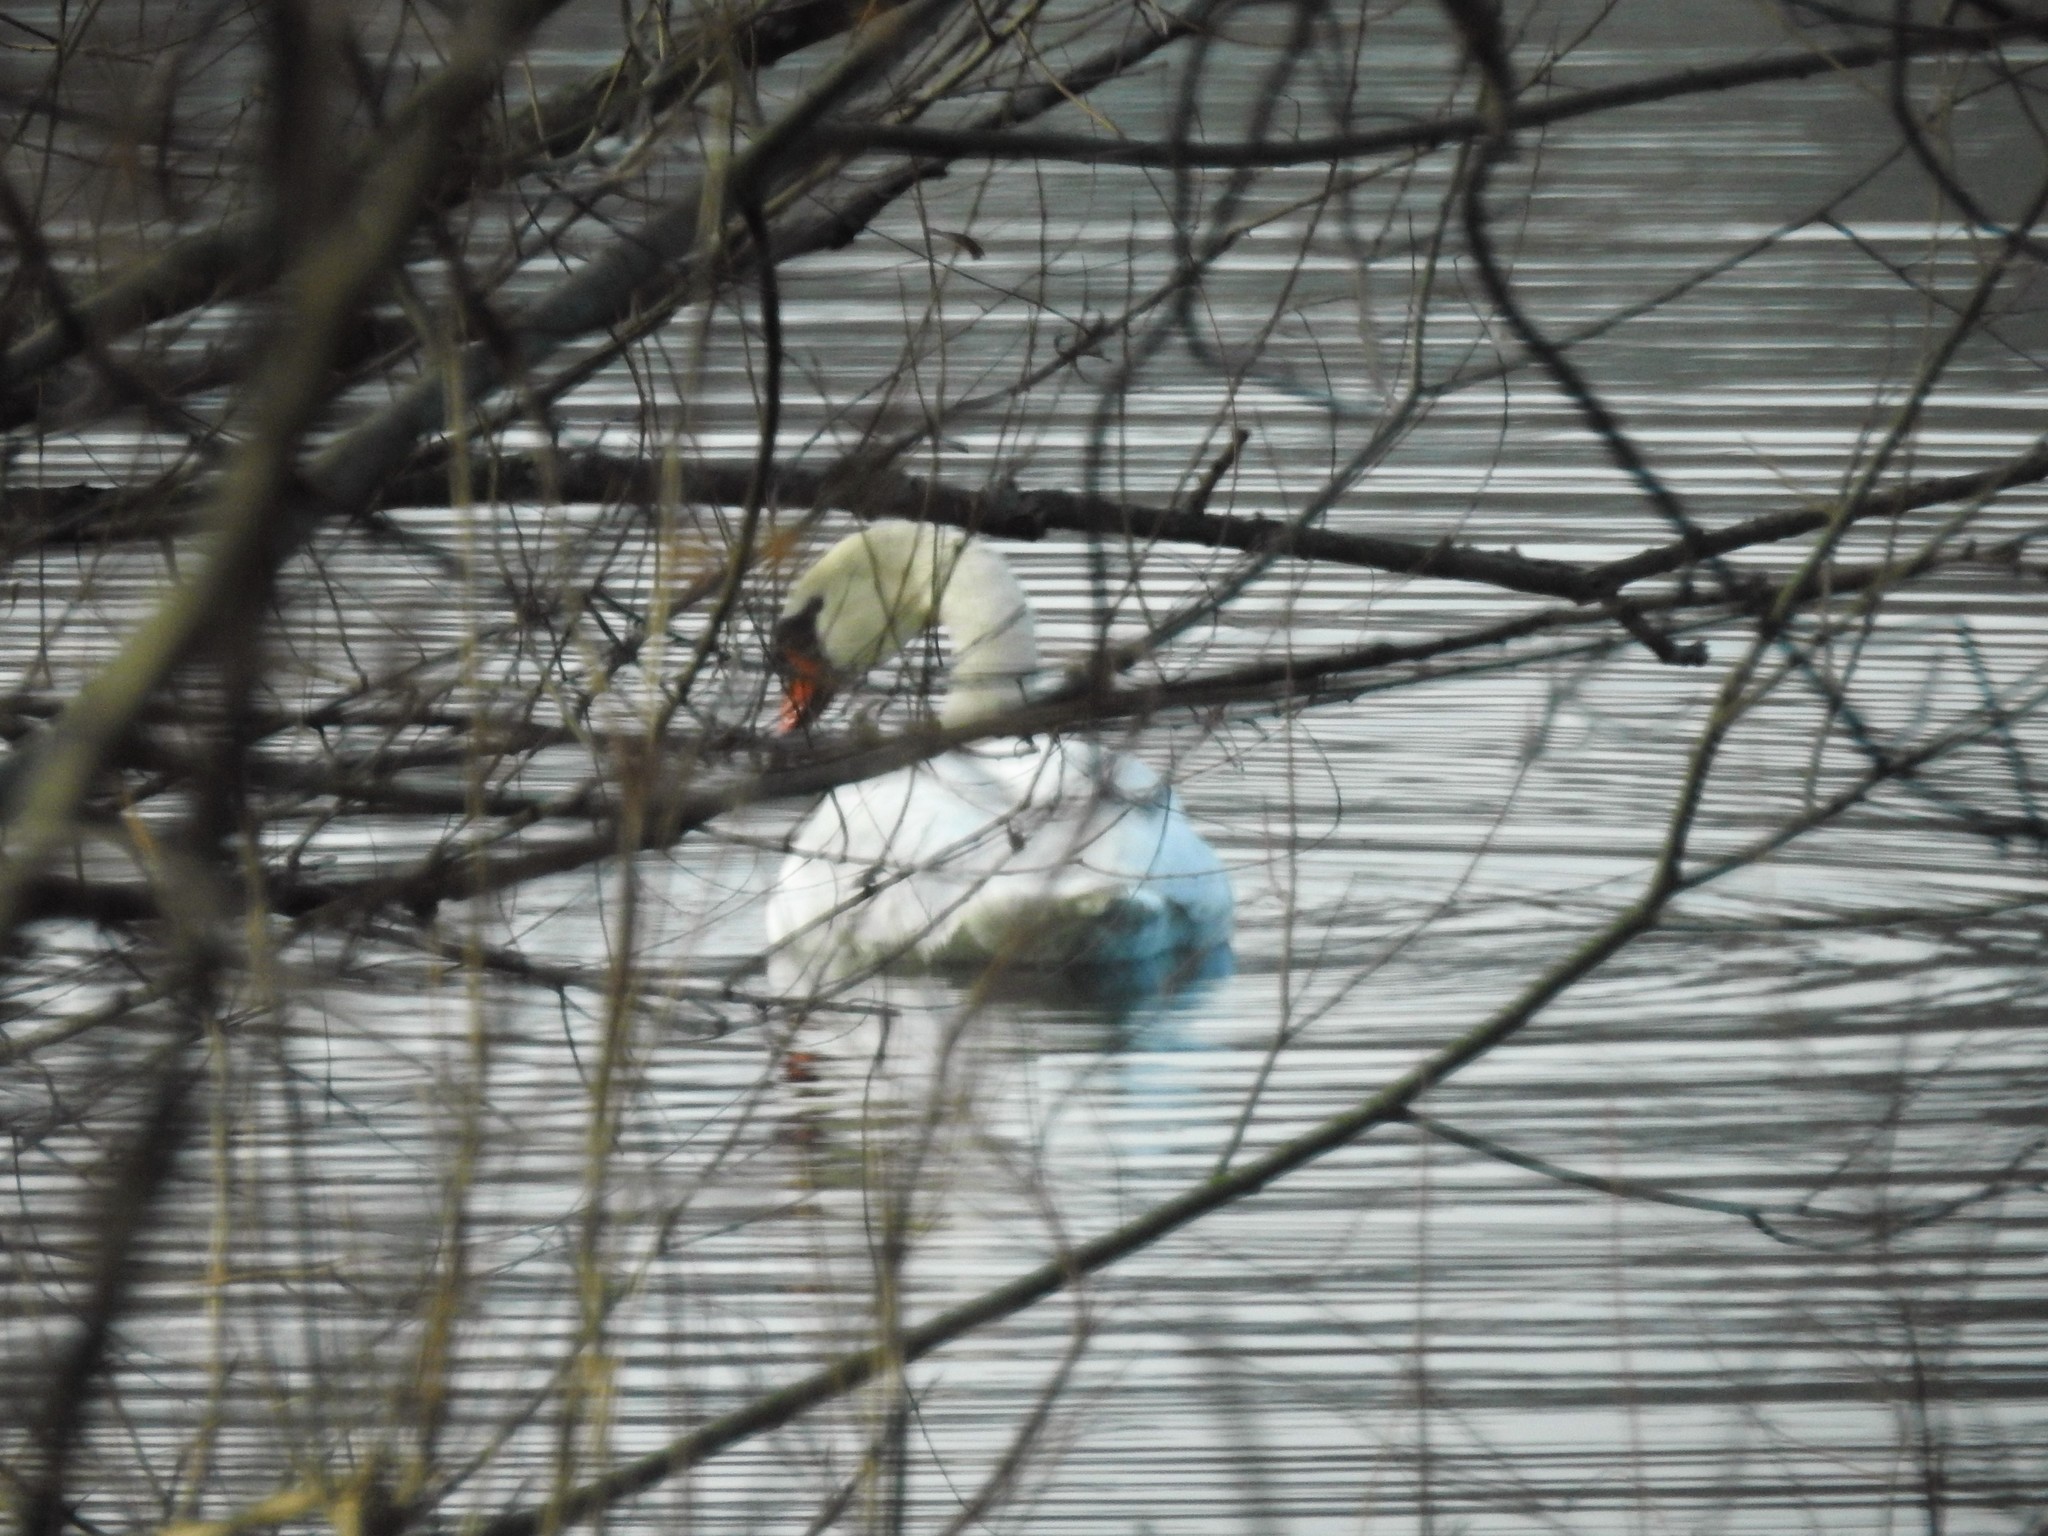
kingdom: Animalia
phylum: Chordata
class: Aves
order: Anseriformes
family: Anatidae
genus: Cygnus
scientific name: Cygnus olor
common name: Mute swan
